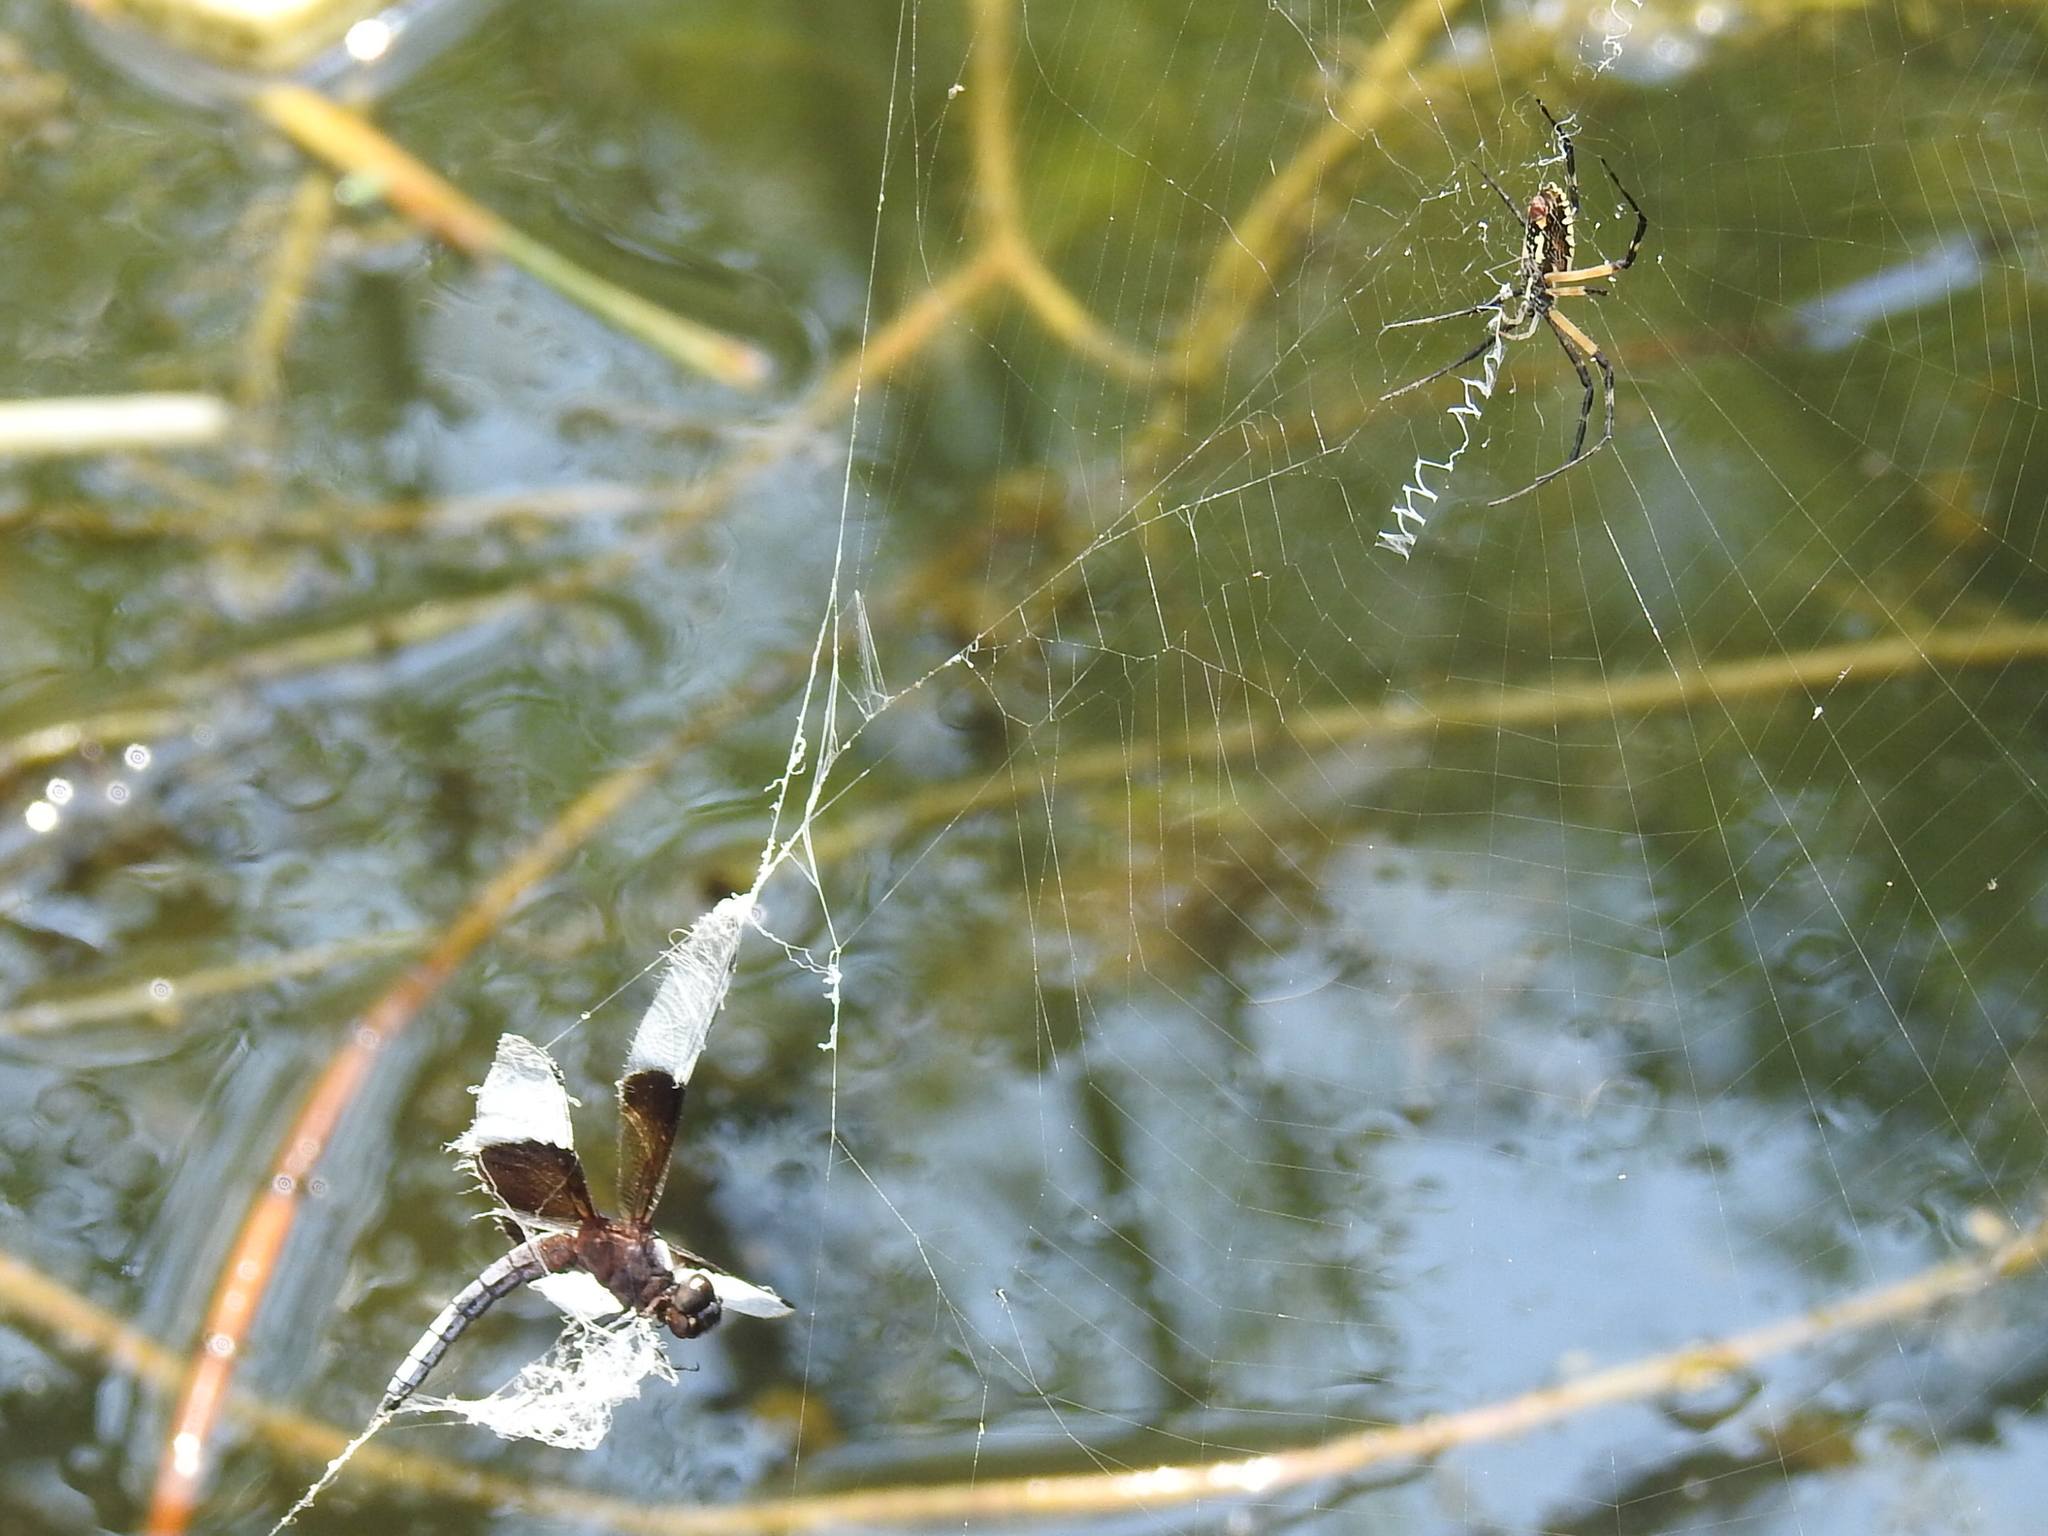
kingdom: Animalia
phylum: Arthropoda
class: Insecta
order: Odonata
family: Libellulidae
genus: Libellula
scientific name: Libellula luctuosa
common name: Widow skimmer
